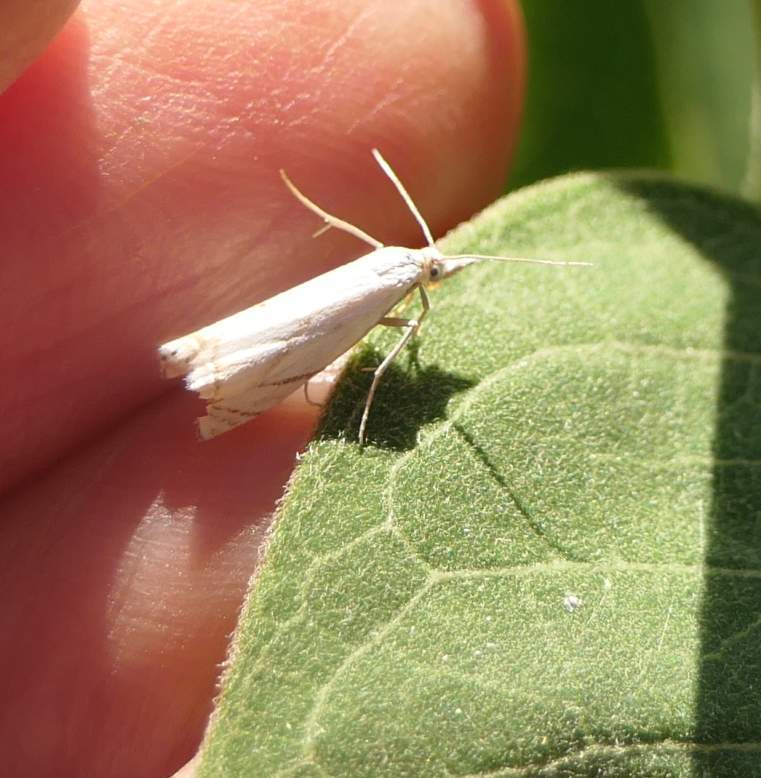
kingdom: Animalia
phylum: Arthropoda
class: Insecta
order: Lepidoptera
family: Crambidae
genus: Crambus
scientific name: Crambus albellus
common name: Small white grass-veneer
